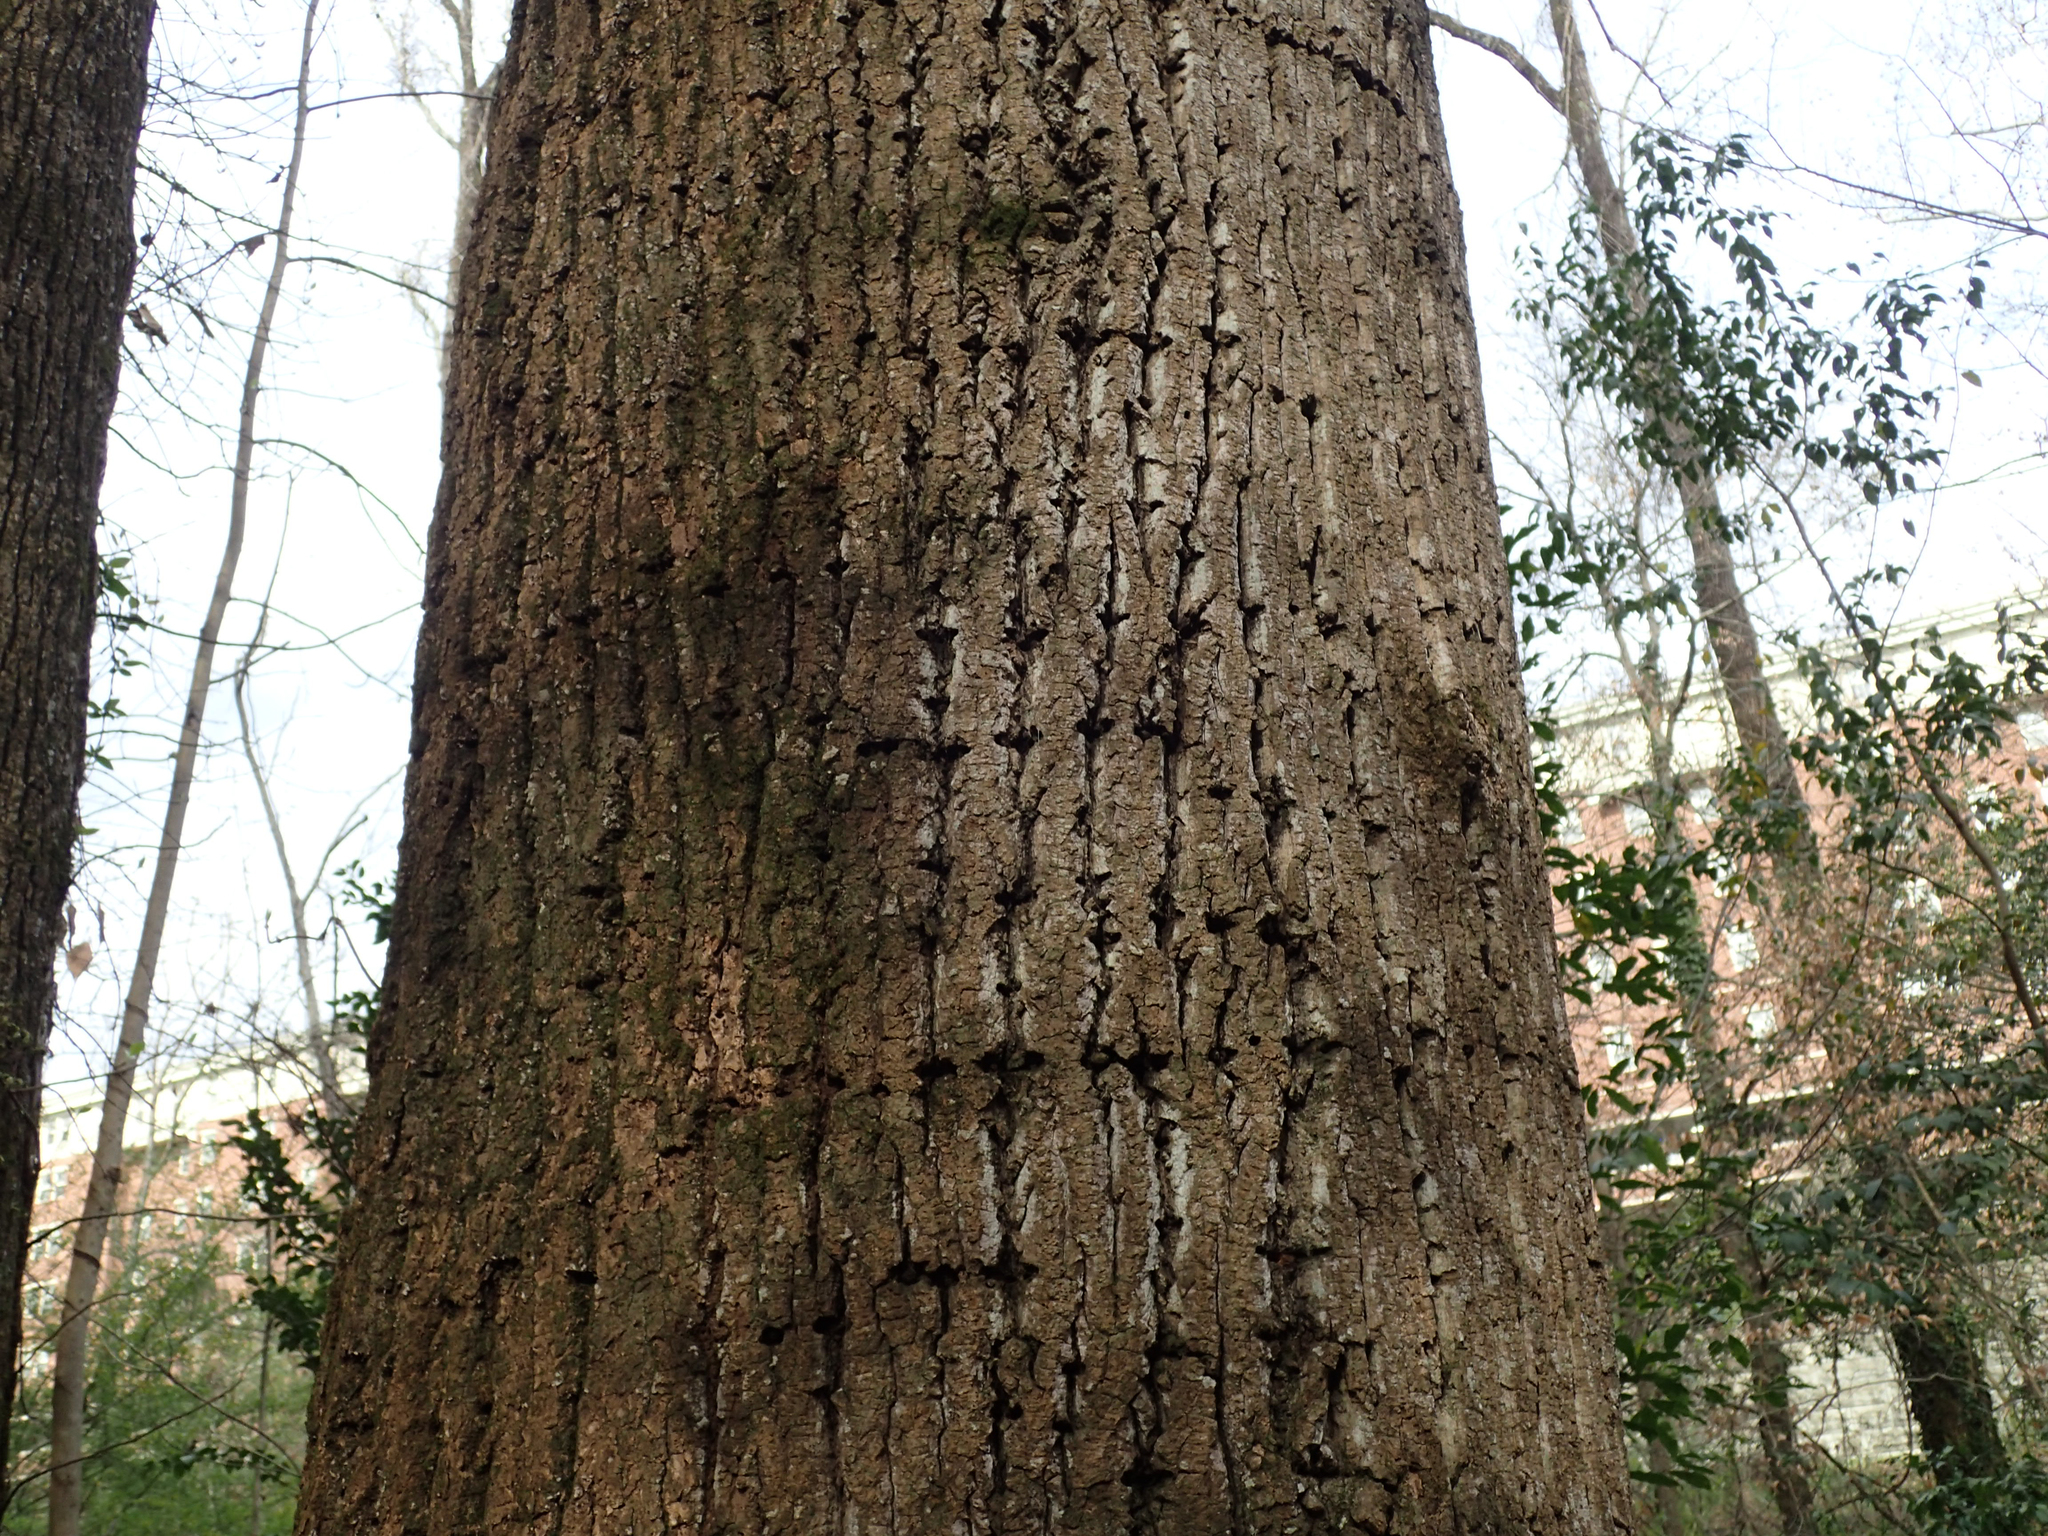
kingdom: Animalia
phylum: Chordata
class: Aves
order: Piciformes
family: Picidae
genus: Sphyrapicus
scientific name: Sphyrapicus varius
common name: Yellow-bellied sapsucker
